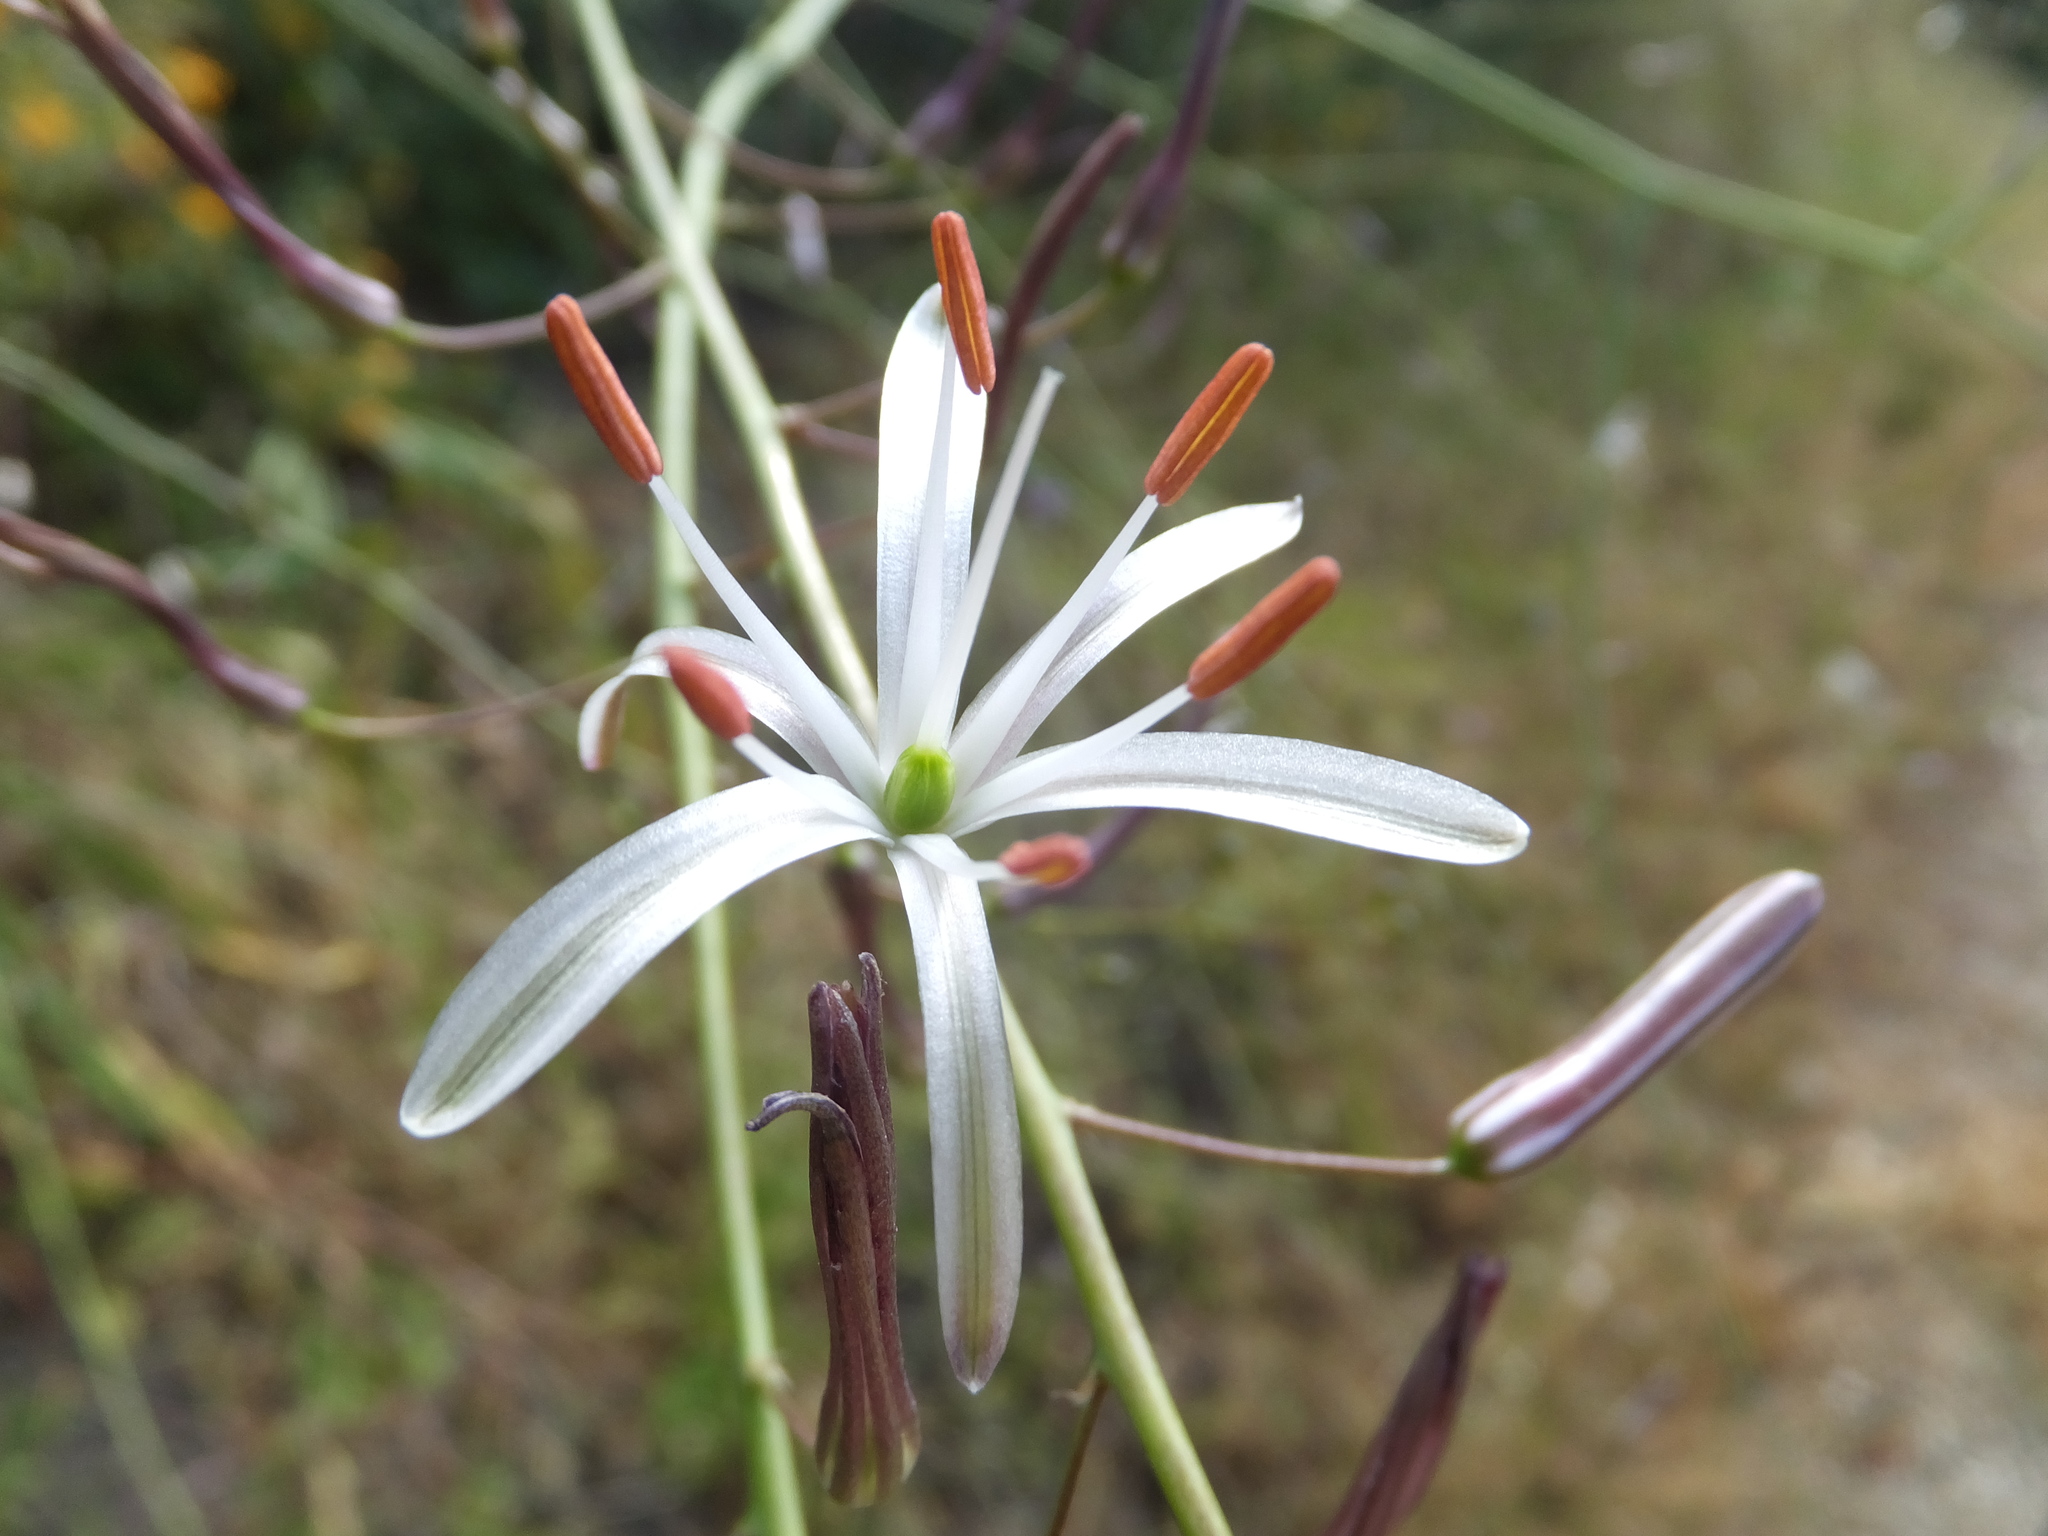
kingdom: Plantae
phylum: Tracheophyta
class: Liliopsida
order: Asparagales
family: Asparagaceae
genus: Chlorogalum
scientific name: Chlorogalum pomeridianum
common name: Amole
